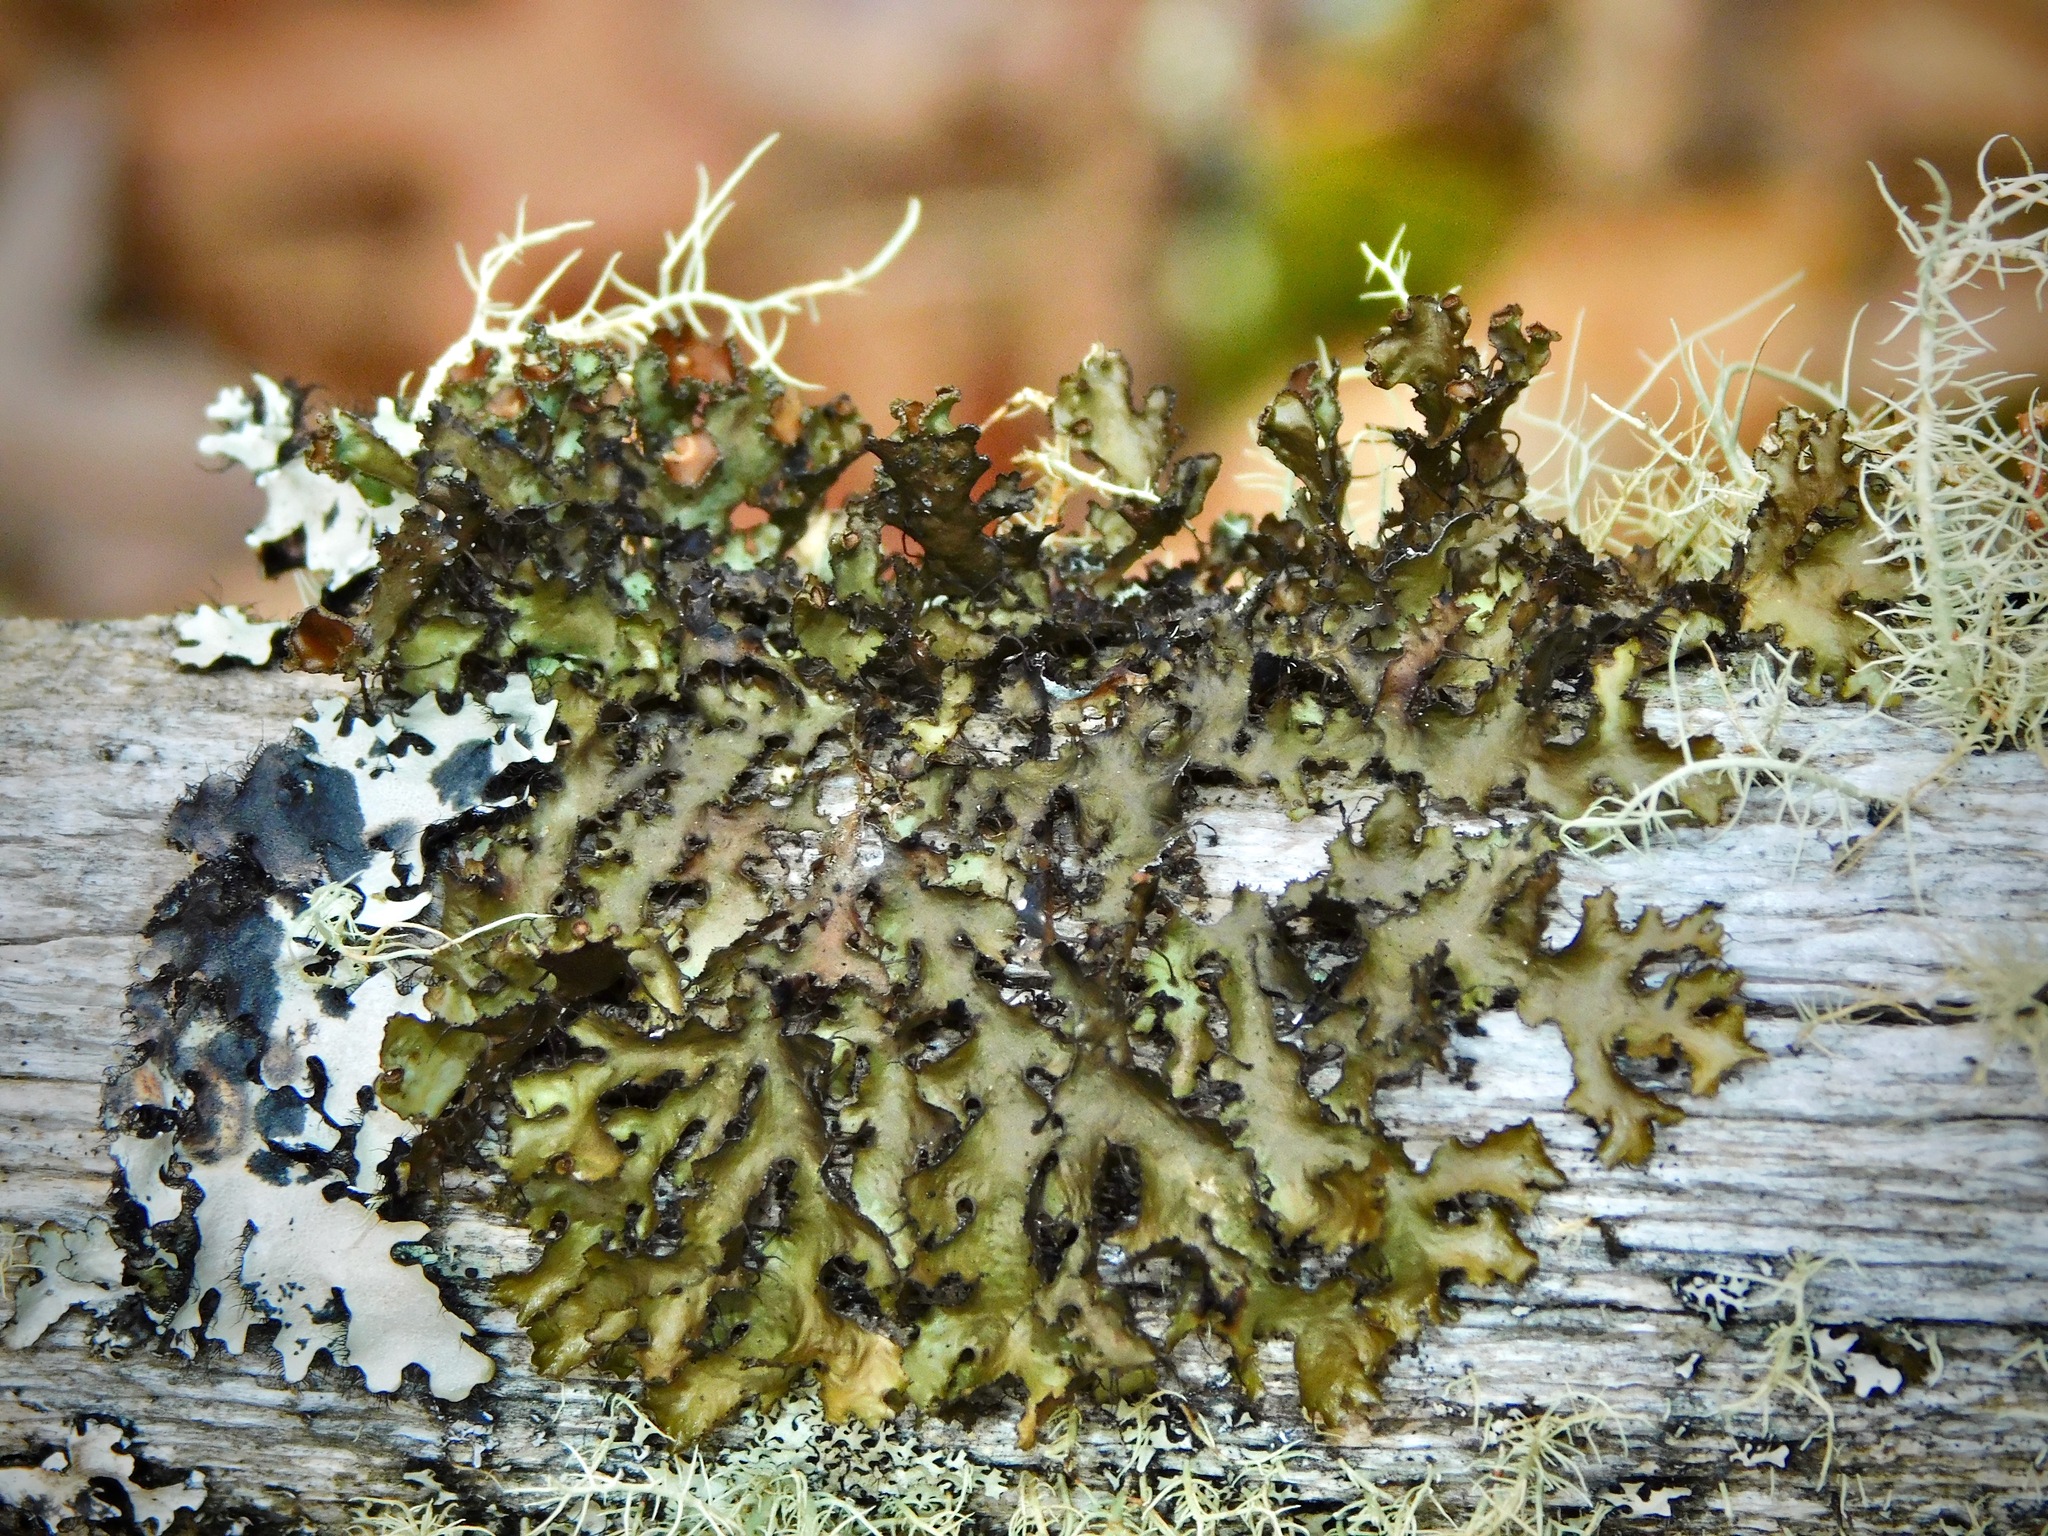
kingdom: Fungi
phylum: Ascomycota
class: Lecanoromycetes
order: Lecanorales
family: Parmeliaceae
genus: Nephromopsis
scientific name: Nephromopsis americana
